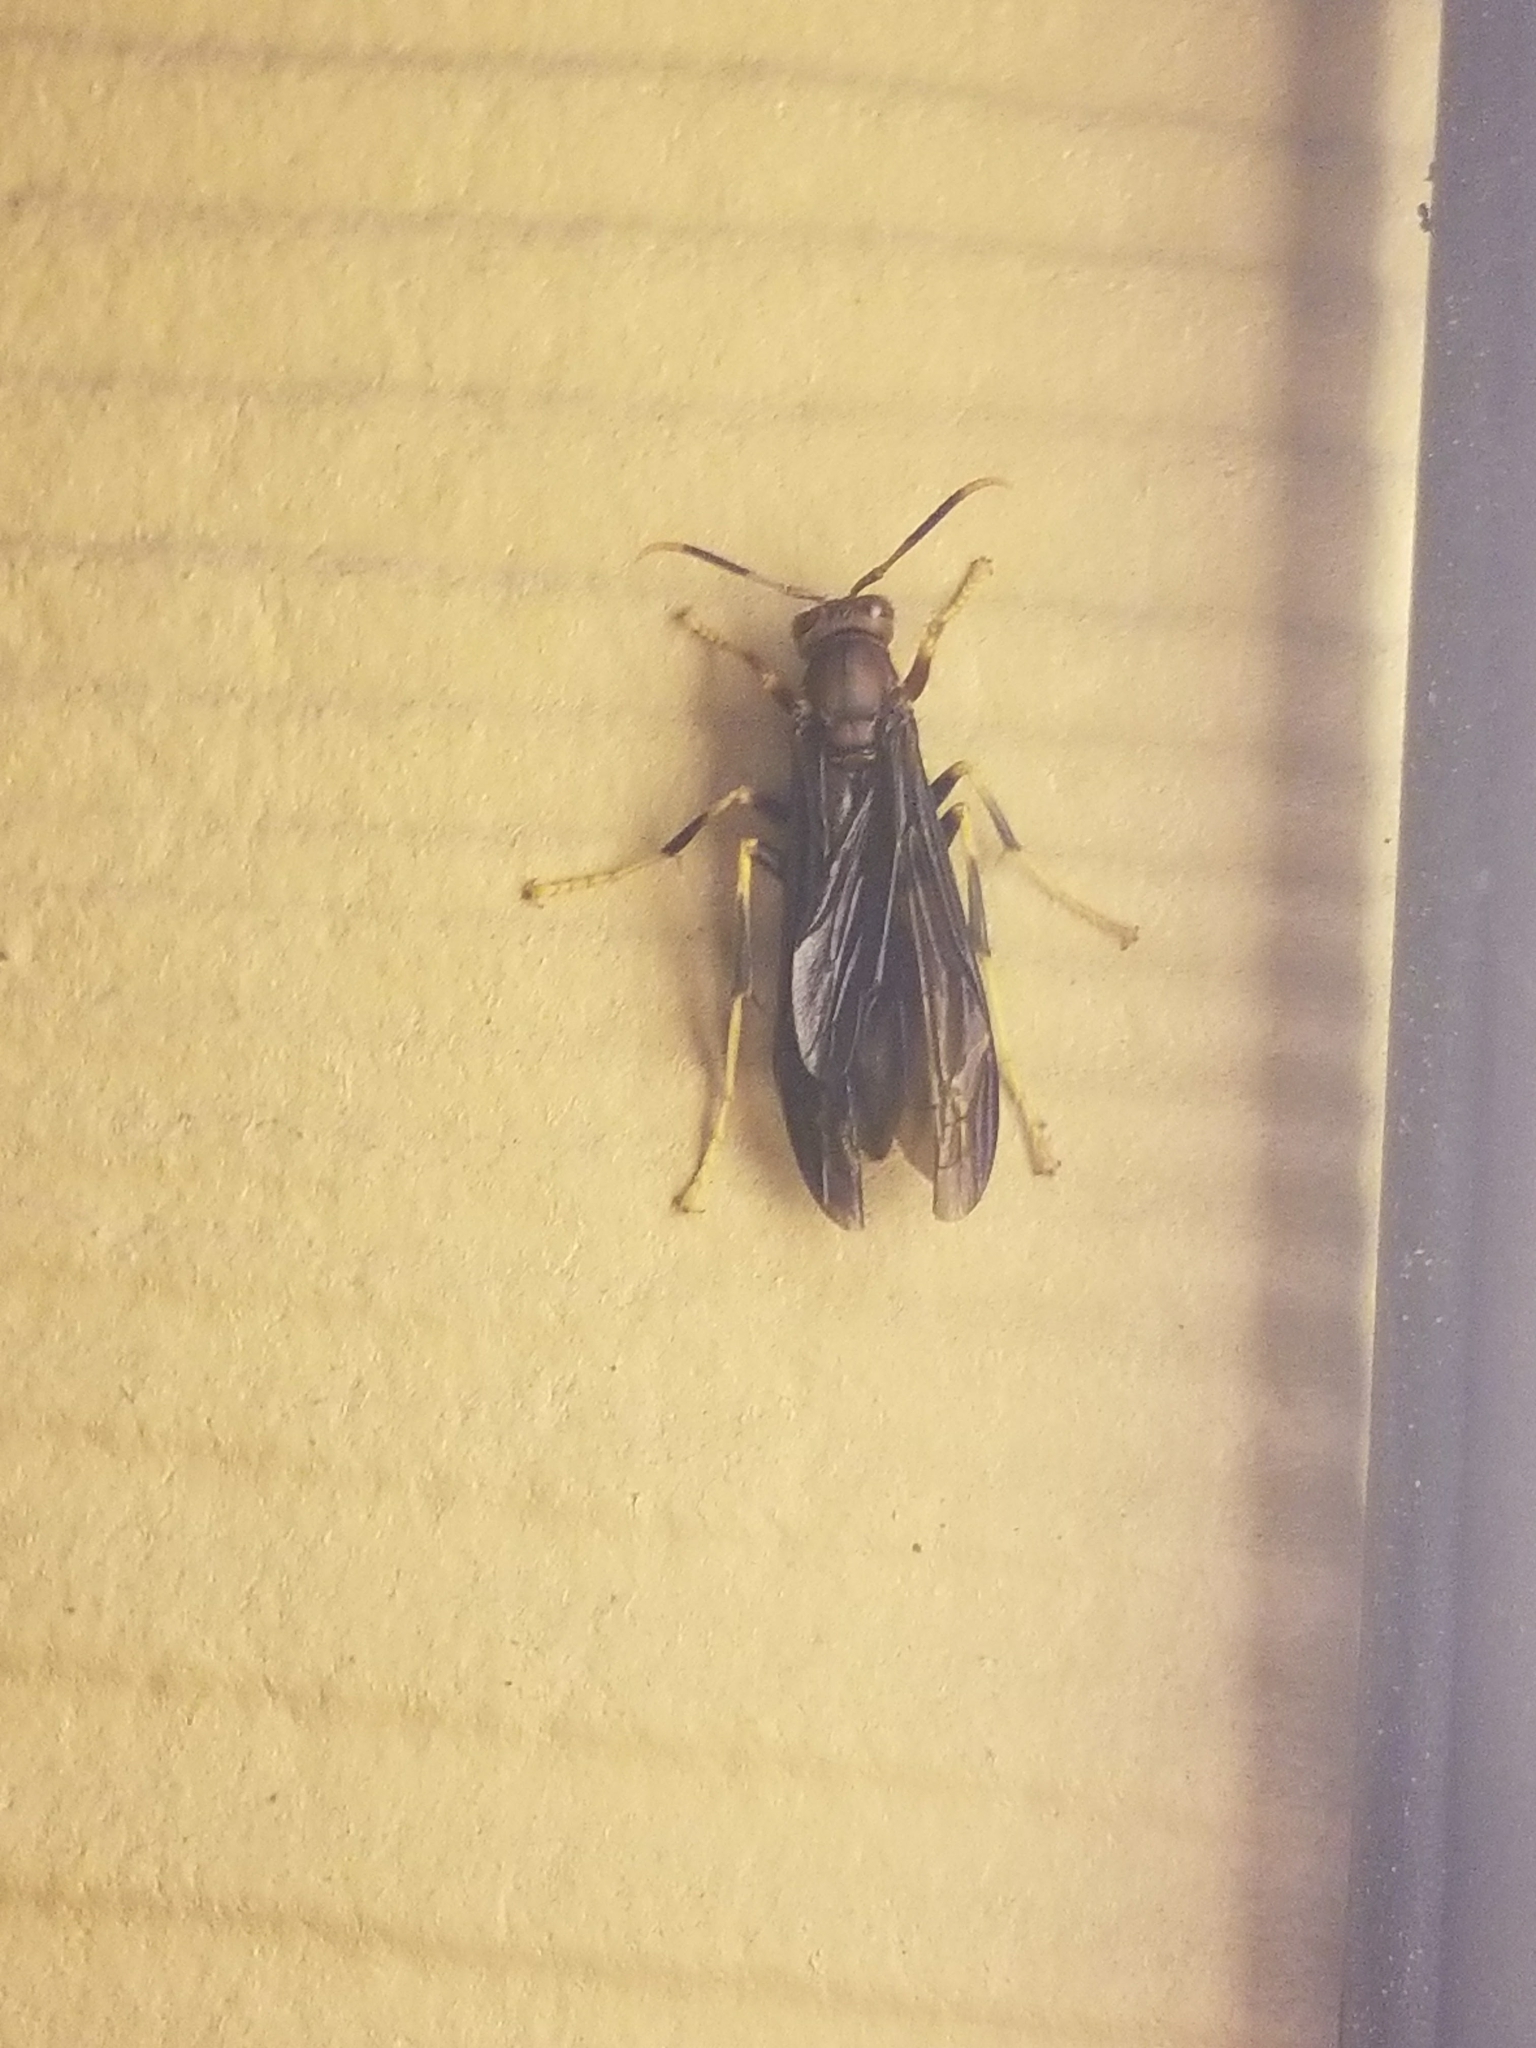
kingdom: Animalia
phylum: Arthropoda
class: Insecta
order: Hymenoptera
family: Eumenidae
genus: Polistes
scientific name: Polistes annularis
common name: Ringed paper wasp
